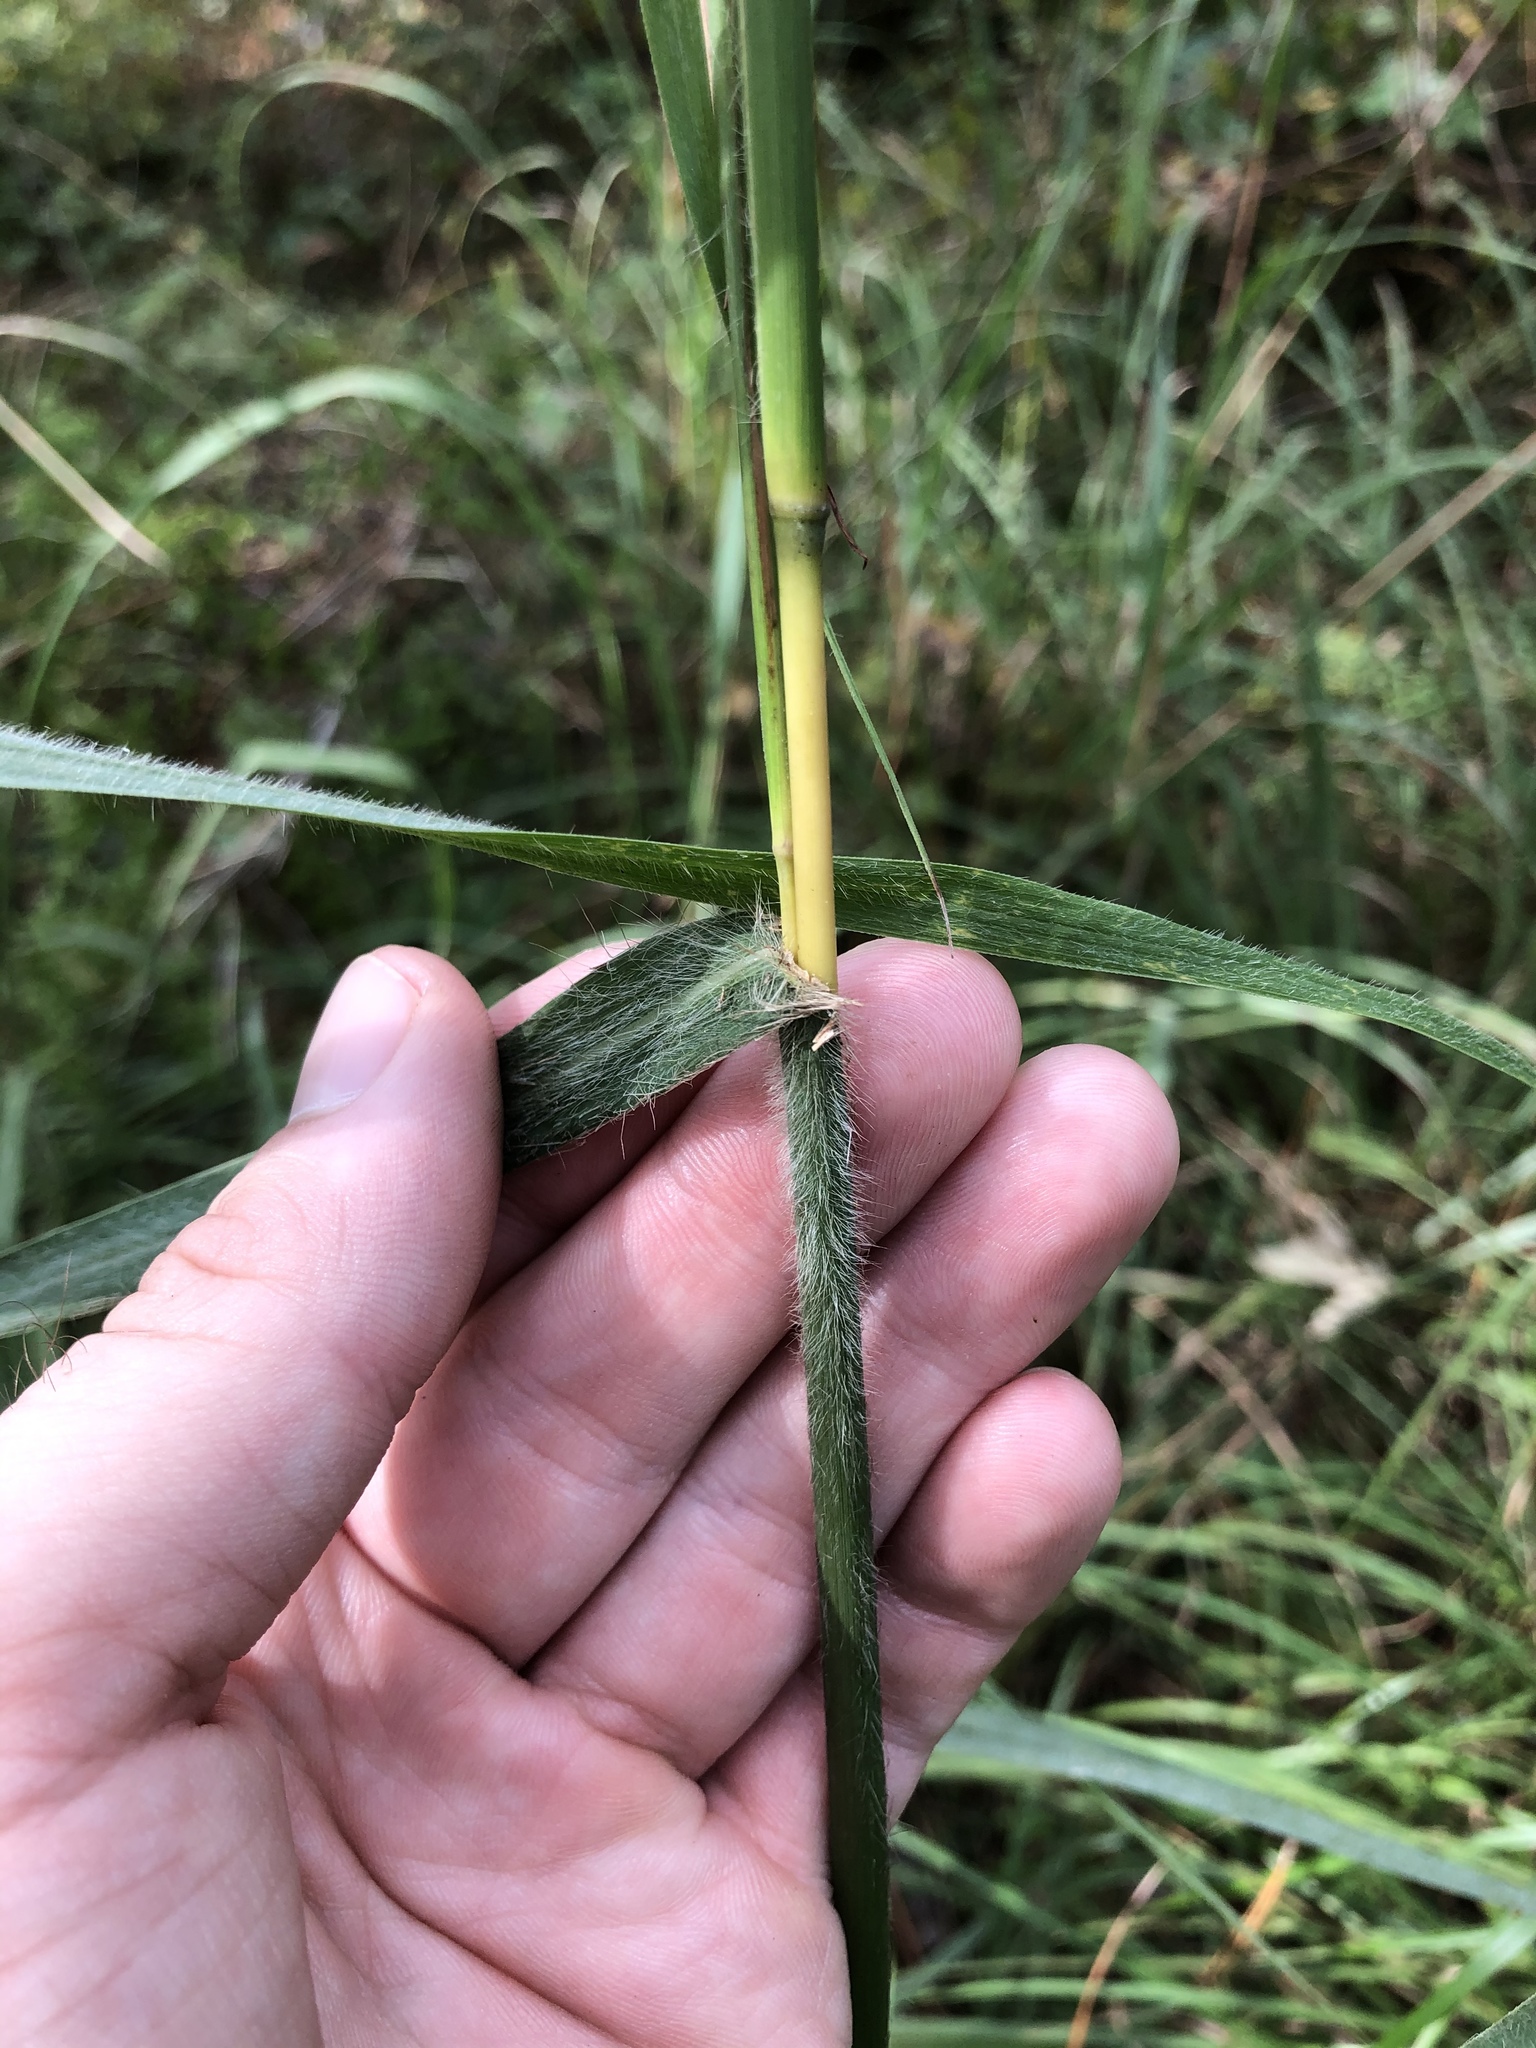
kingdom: Plantae
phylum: Tracheophyta
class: Liliopsida
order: Poales
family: Poaceae
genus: Andropogon
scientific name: Andropogon gerardi
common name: Big bluestem
